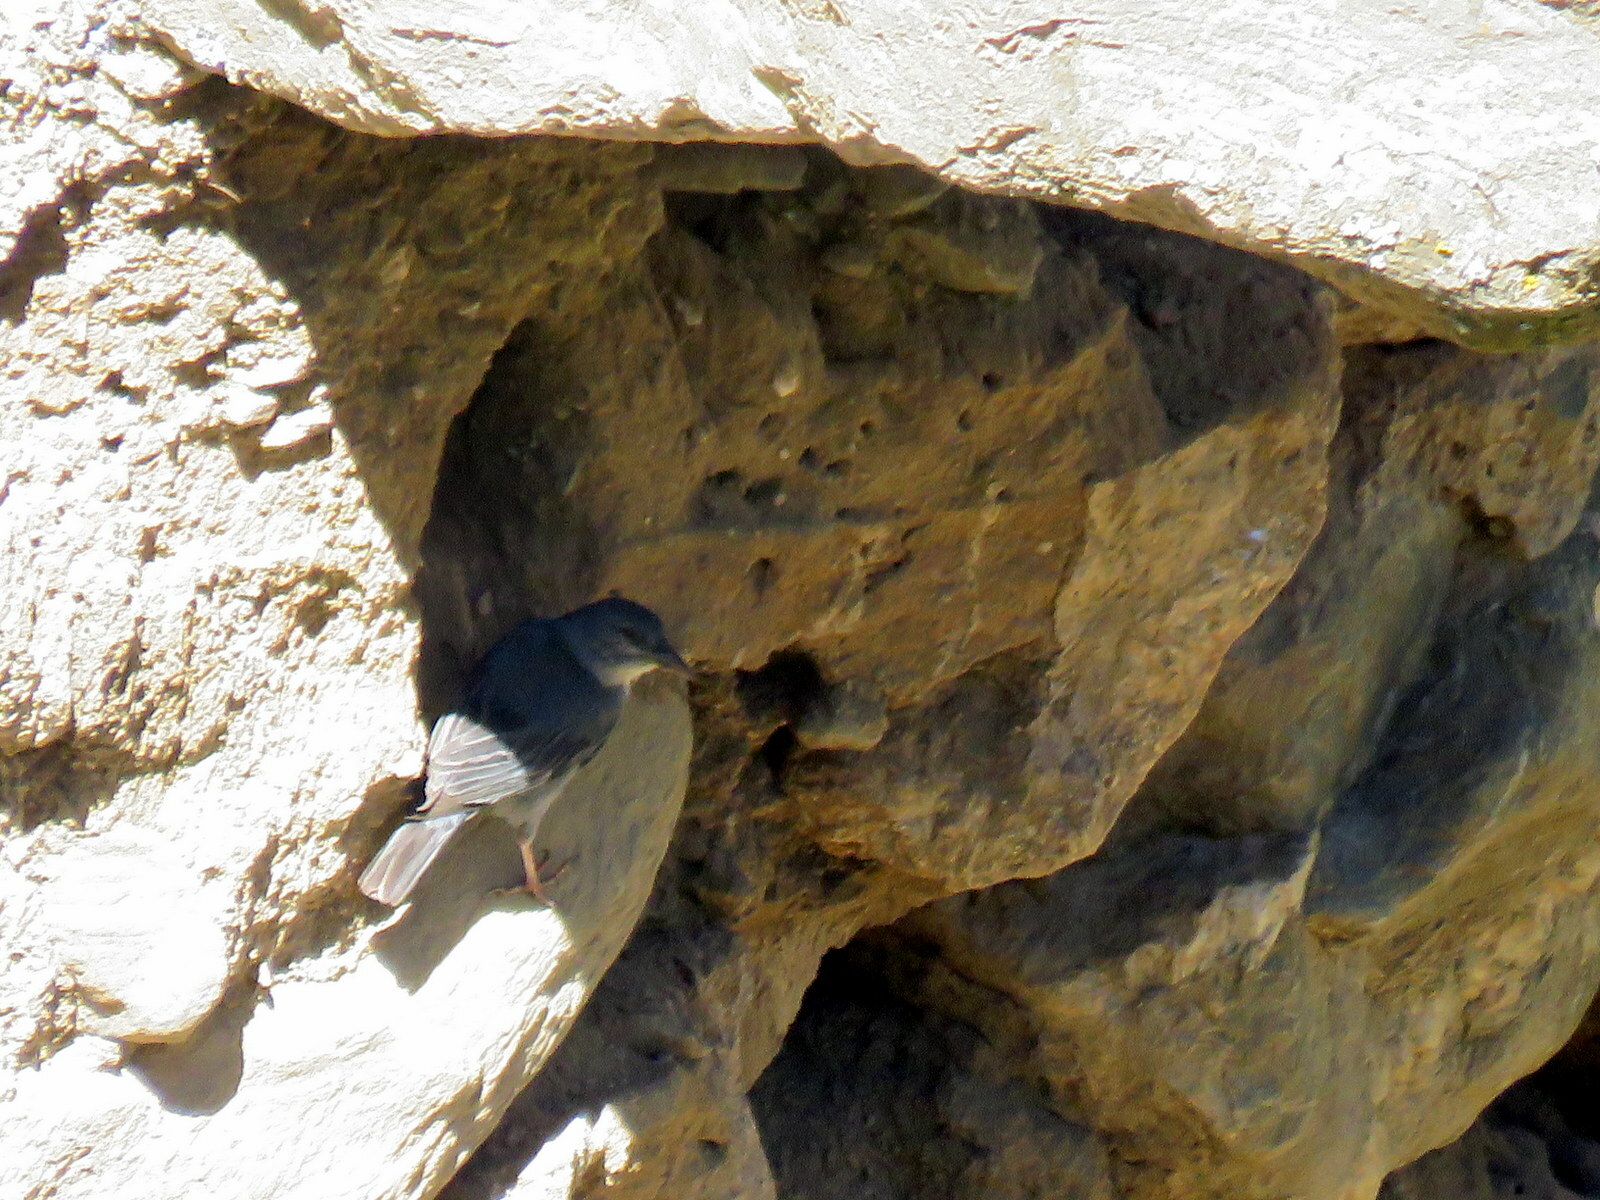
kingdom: Animalia
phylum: Chordata
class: Aves
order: Passeriformes
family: Thraupidae
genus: Idiopsar
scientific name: Idiopsar brachyurus
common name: Short-tailed finch
